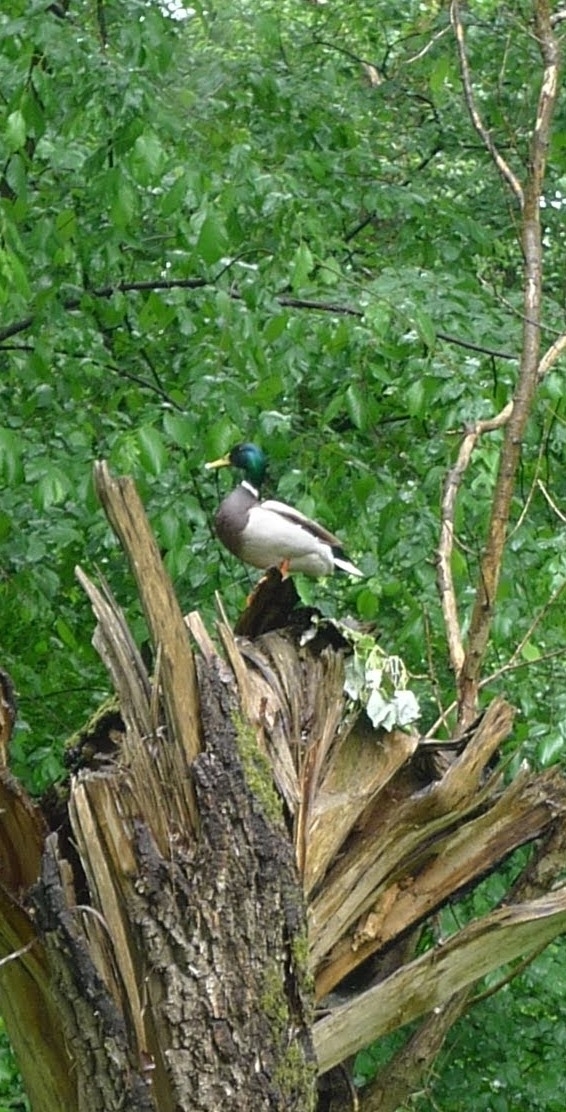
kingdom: Animalia
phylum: Chordata
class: Aves
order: Anseriformes
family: Anatidae
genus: Anas
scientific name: Anas platyrhynchos
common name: Mallard
